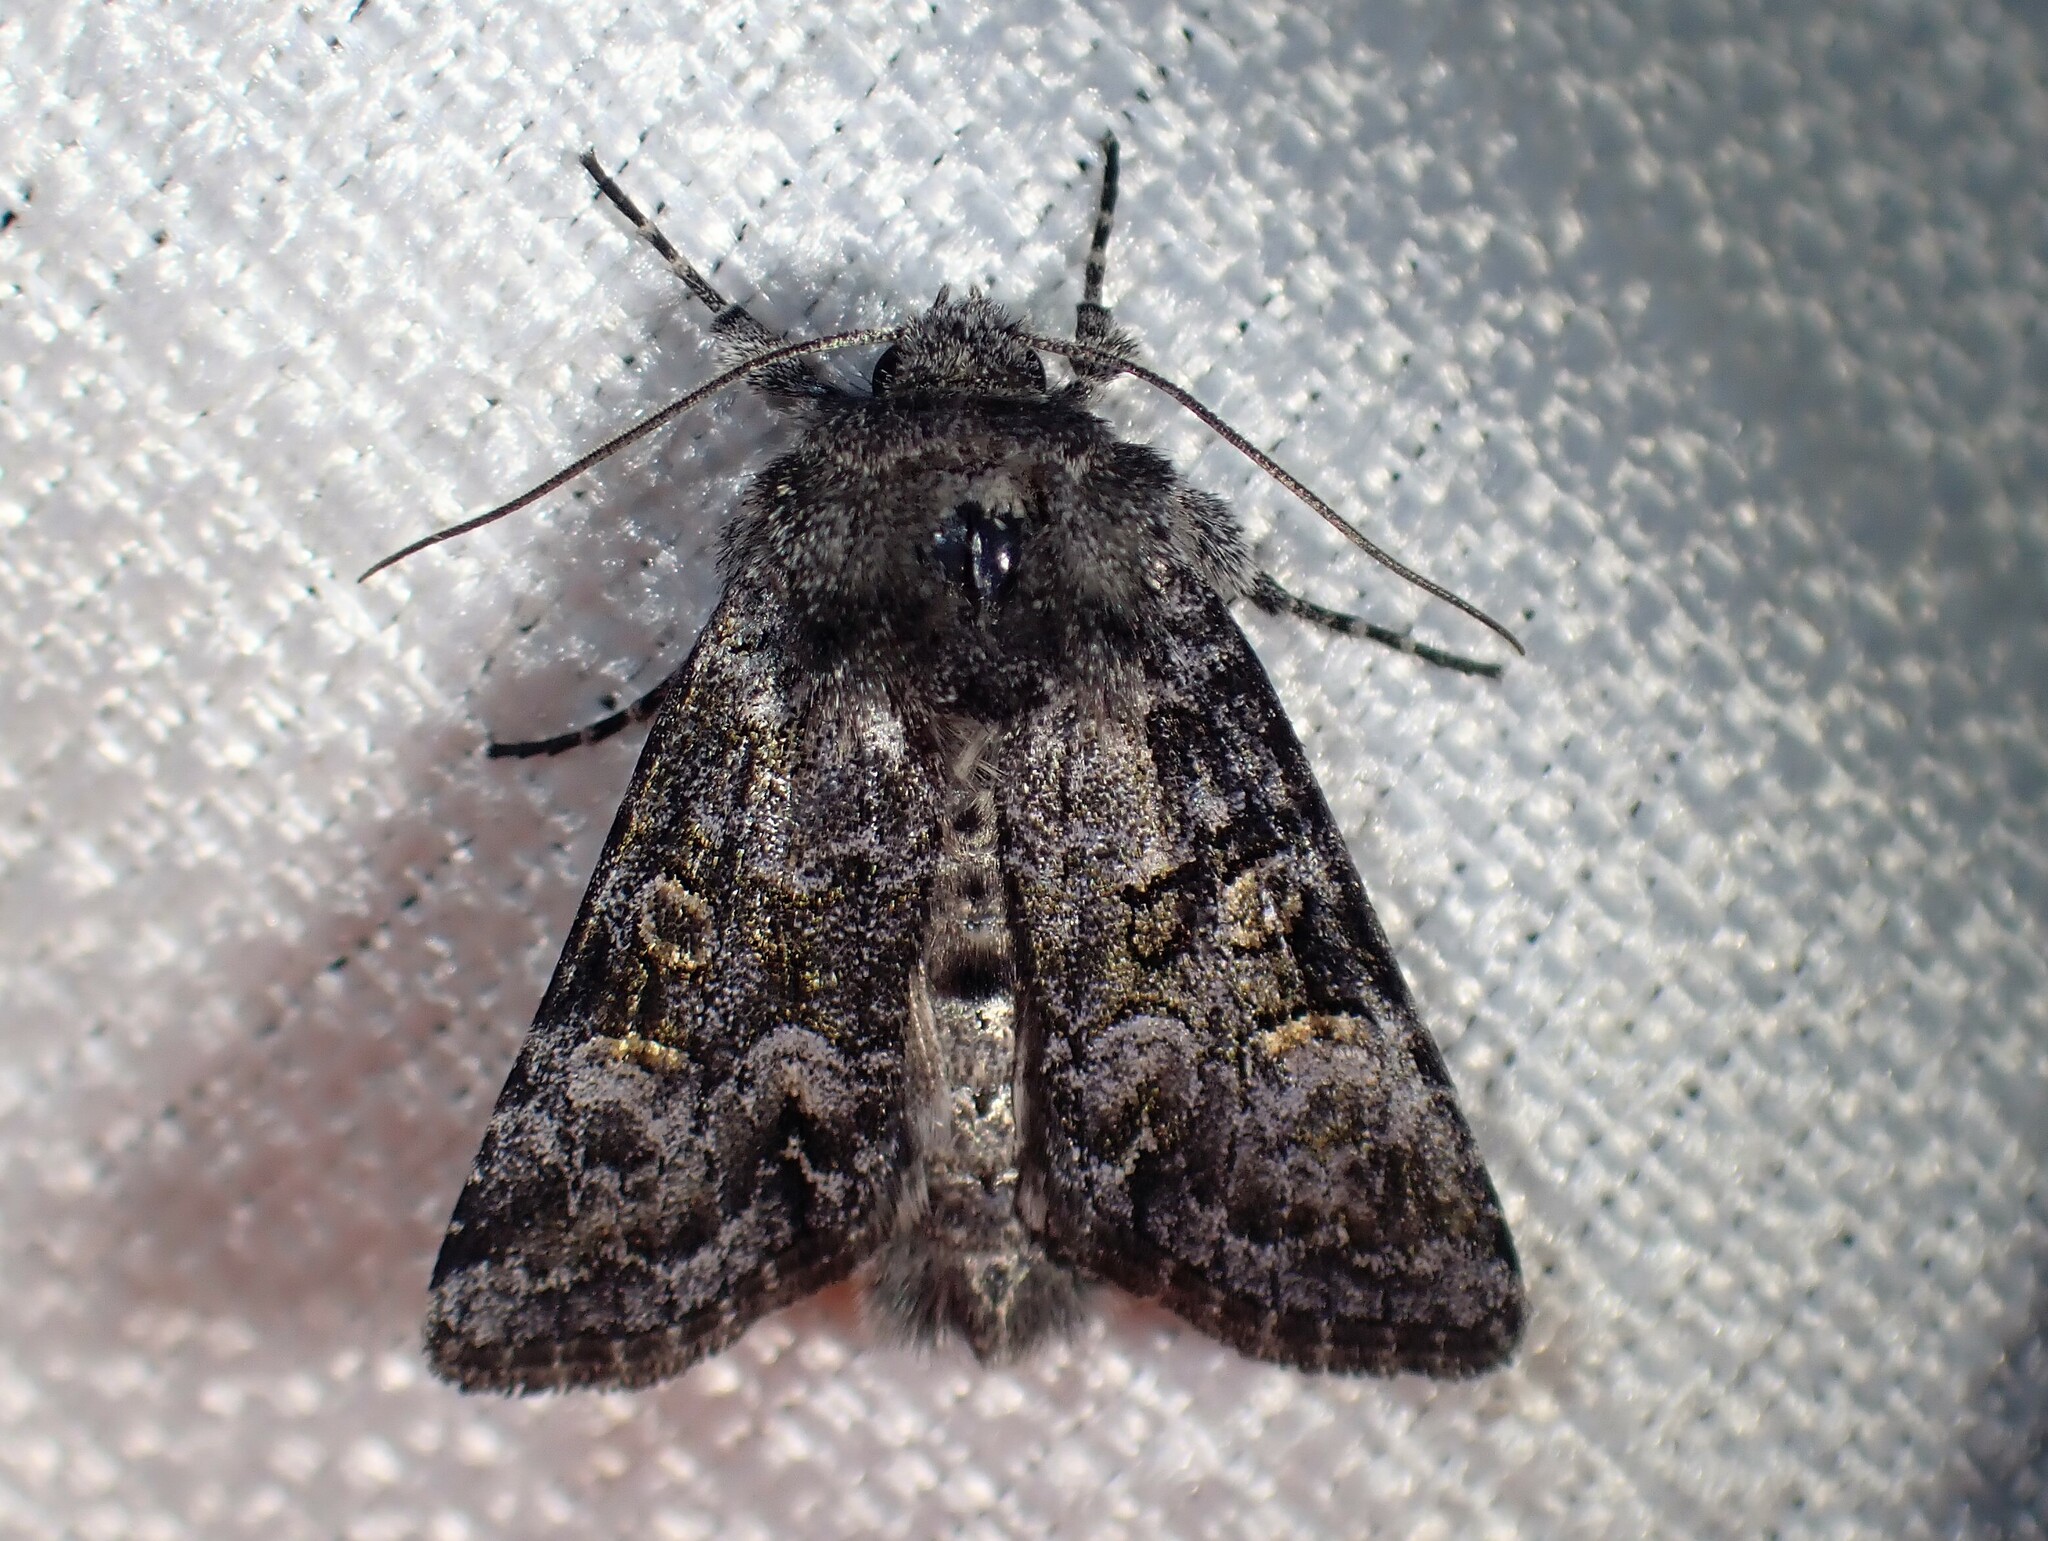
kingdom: Animalia
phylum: Arthropoda
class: Insecta
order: Lepidoptera
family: Noctuidae
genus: Lacinipolia
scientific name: Lacinipolia anguina
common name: Snaky arches moth
